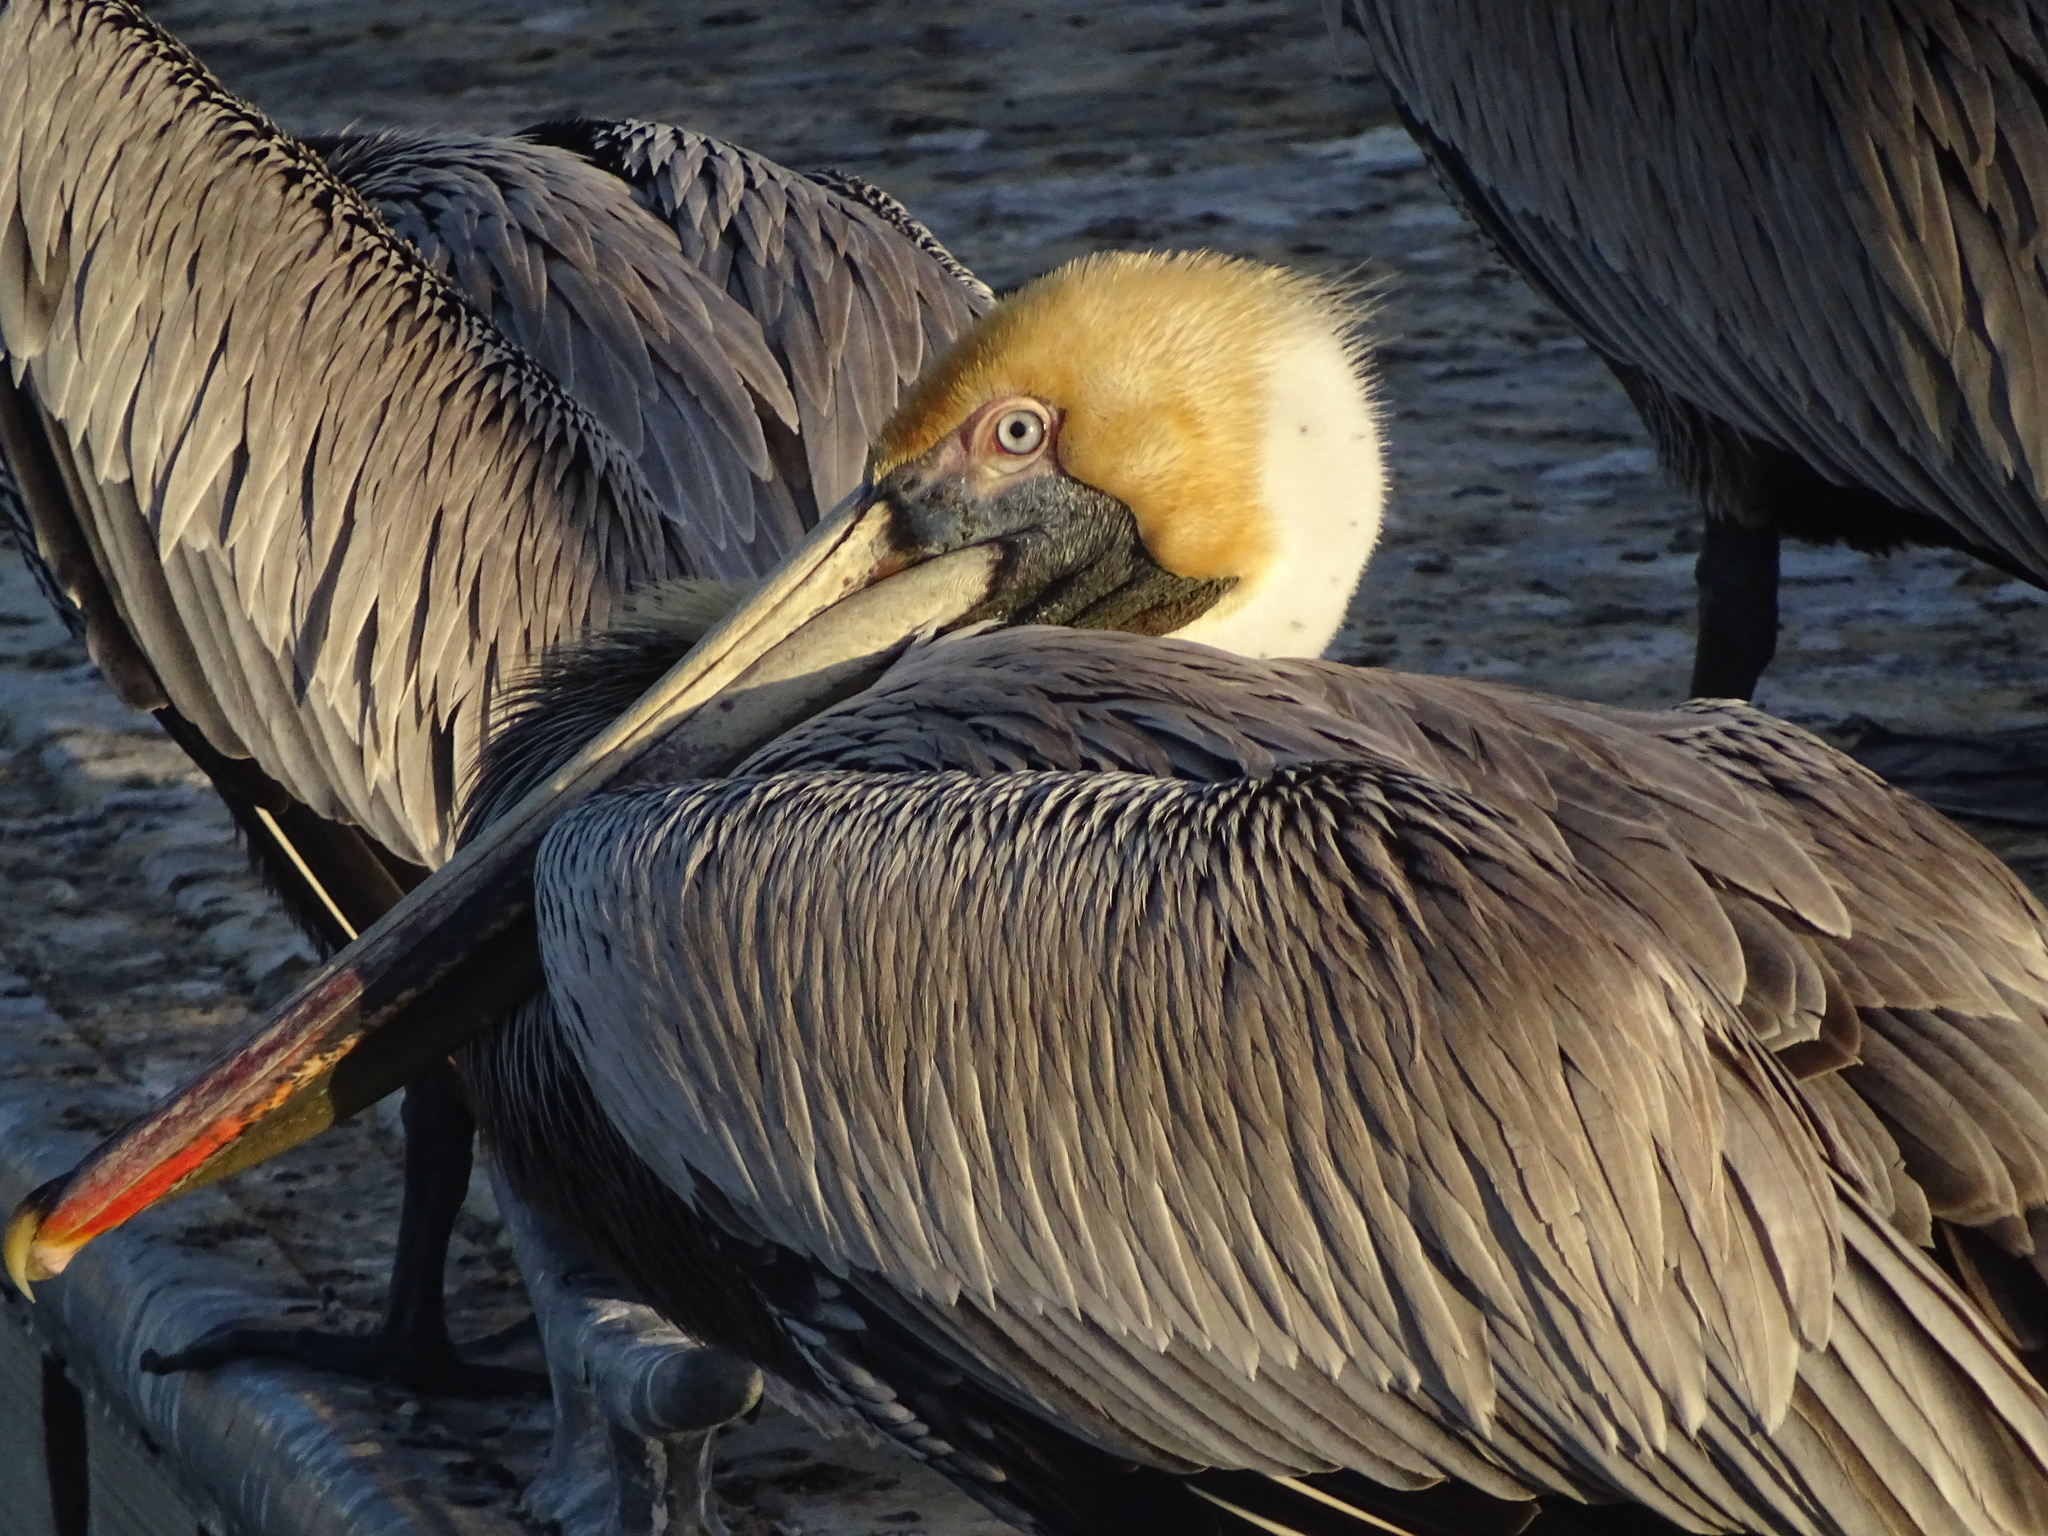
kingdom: Animalia
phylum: Chordata
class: Aves
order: Pelecaniformes
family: Pelecanidae
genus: Pelecanus
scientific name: Pelecanus occidentalis
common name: Brown pelican
